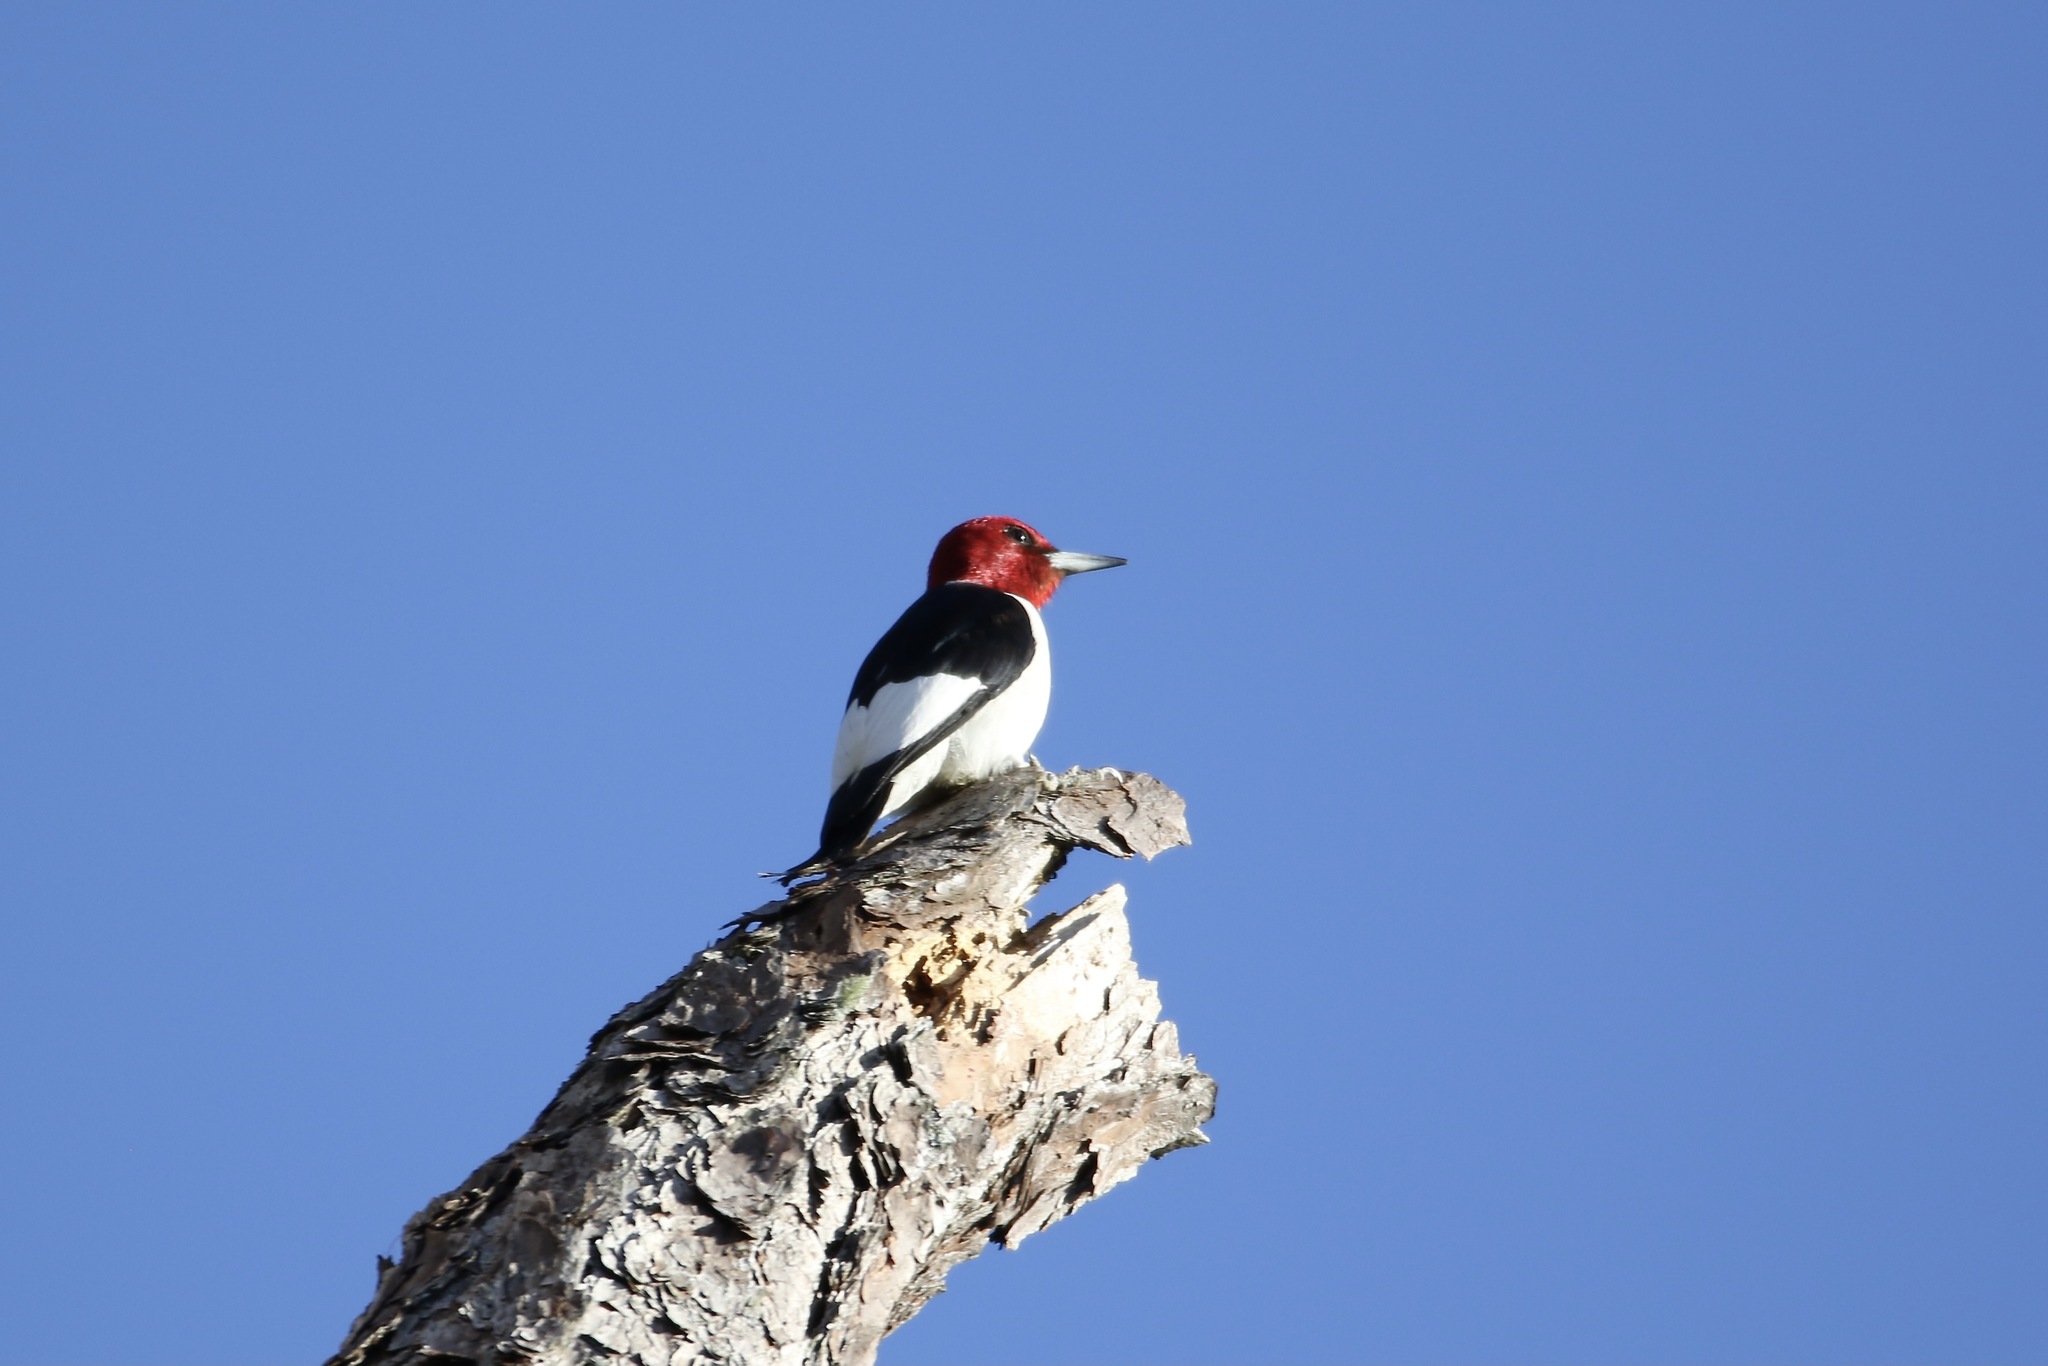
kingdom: Animalia
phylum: Chordata
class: Aves
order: Piciformes
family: Picidae
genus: Melanerpes
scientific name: Melanerpes erythrocephalus
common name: Red-headed woodpecker
